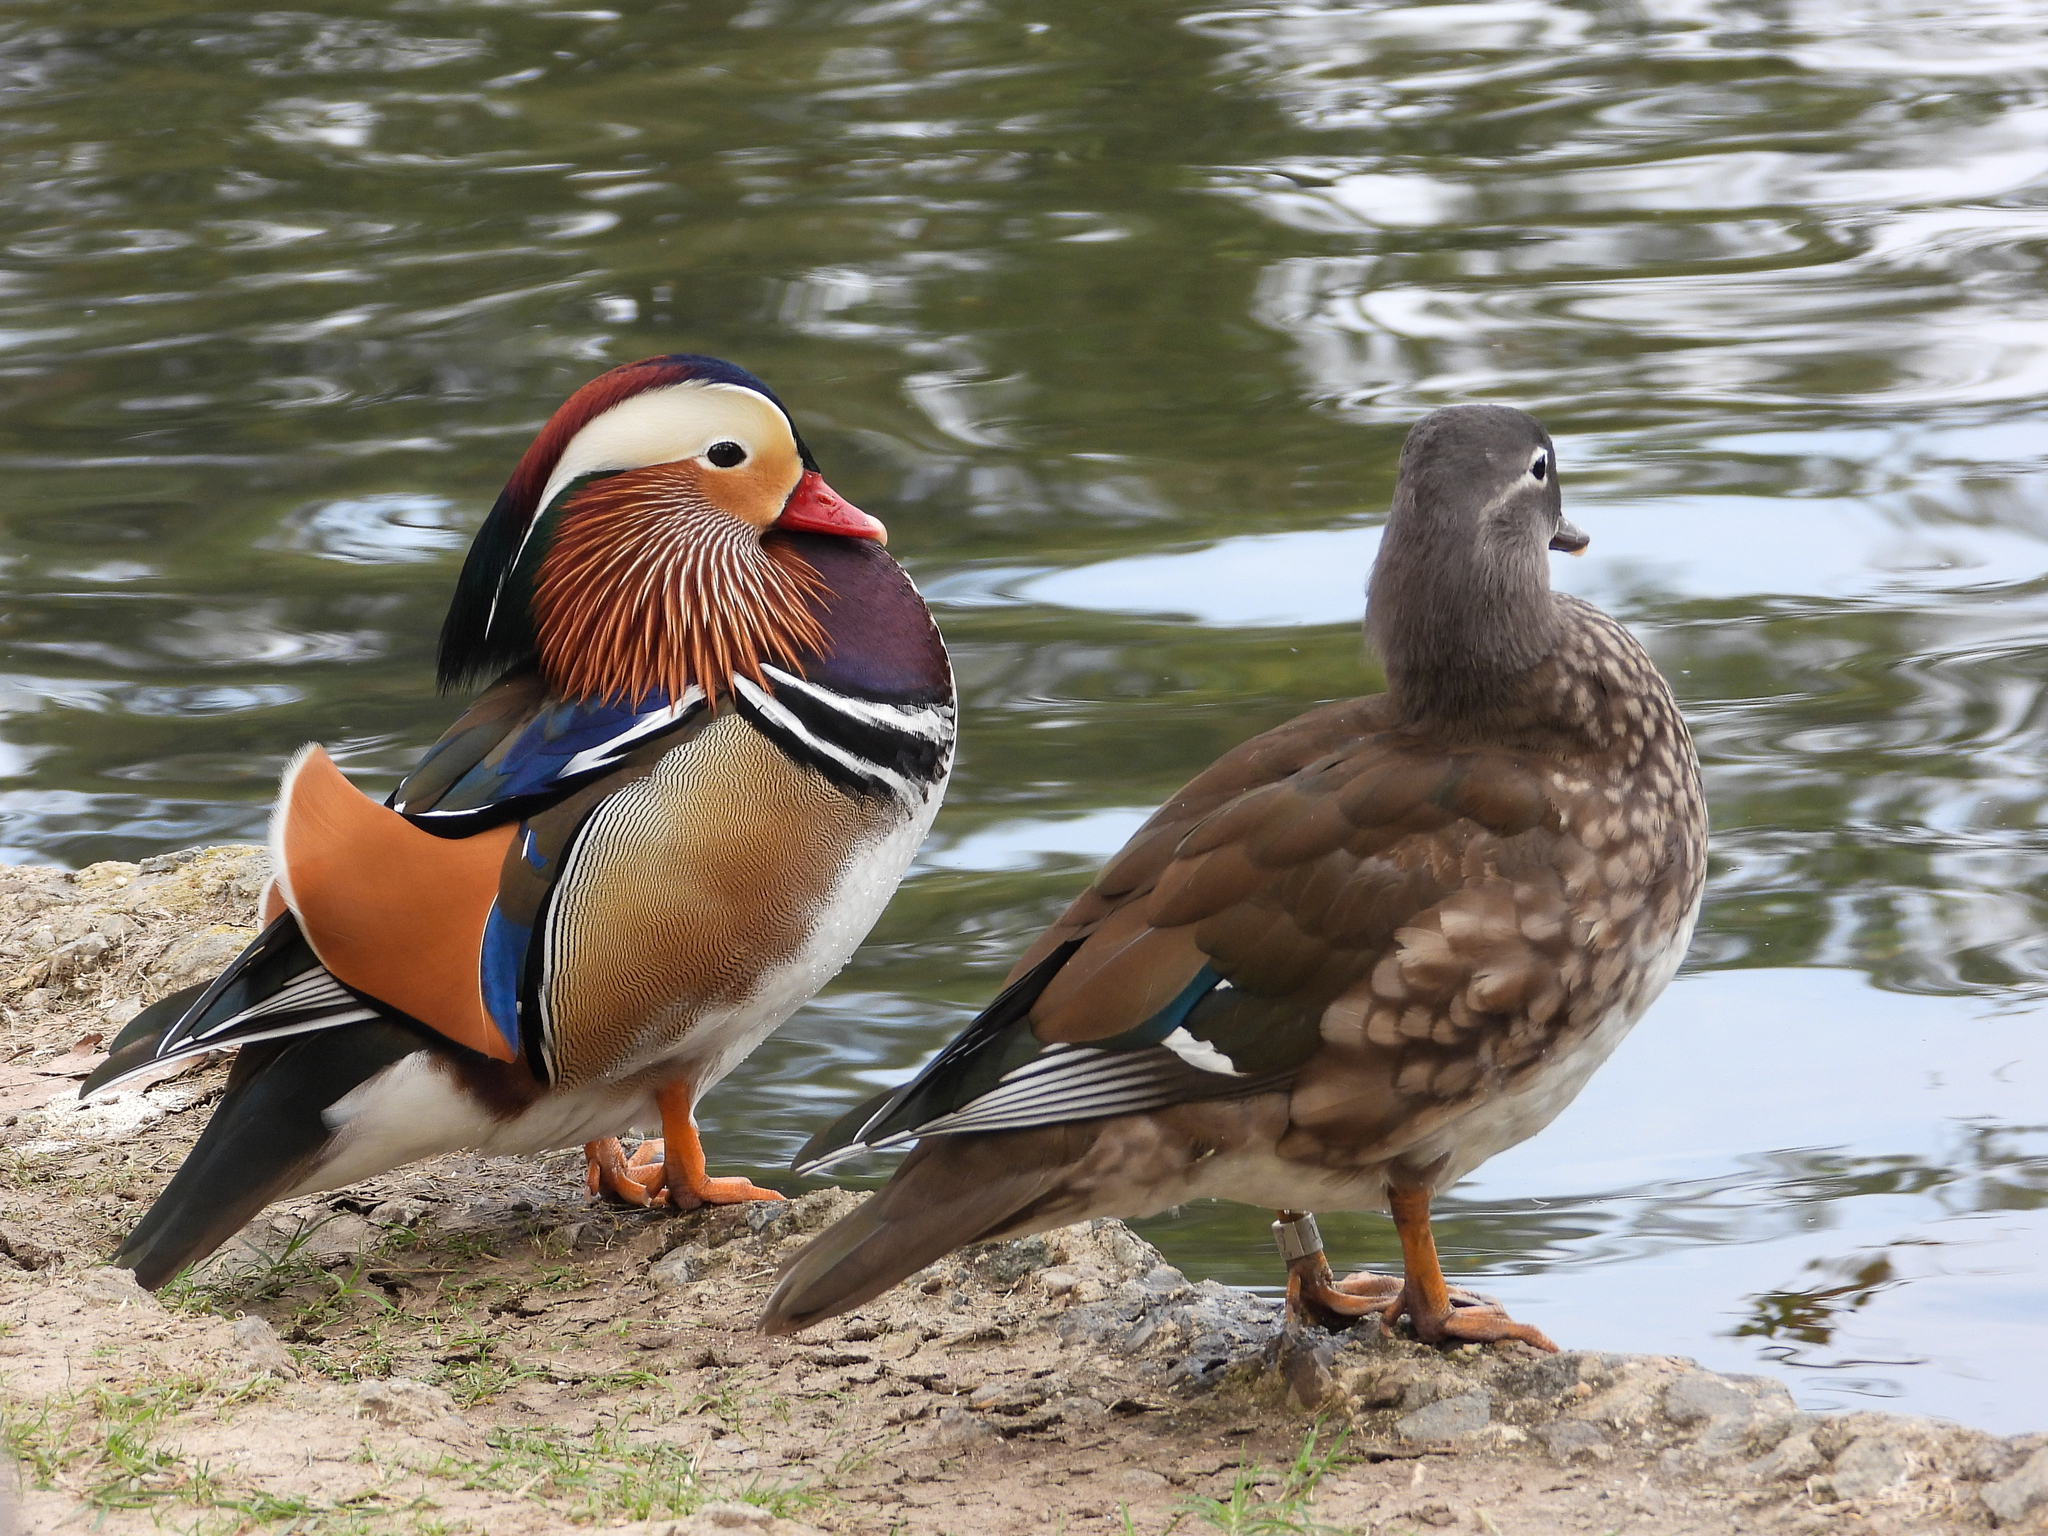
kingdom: Animalia
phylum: Chordata
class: Aves
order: Anseriformes
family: Anatidae
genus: Aix
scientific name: Aix galericulata
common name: Mandarin duck
